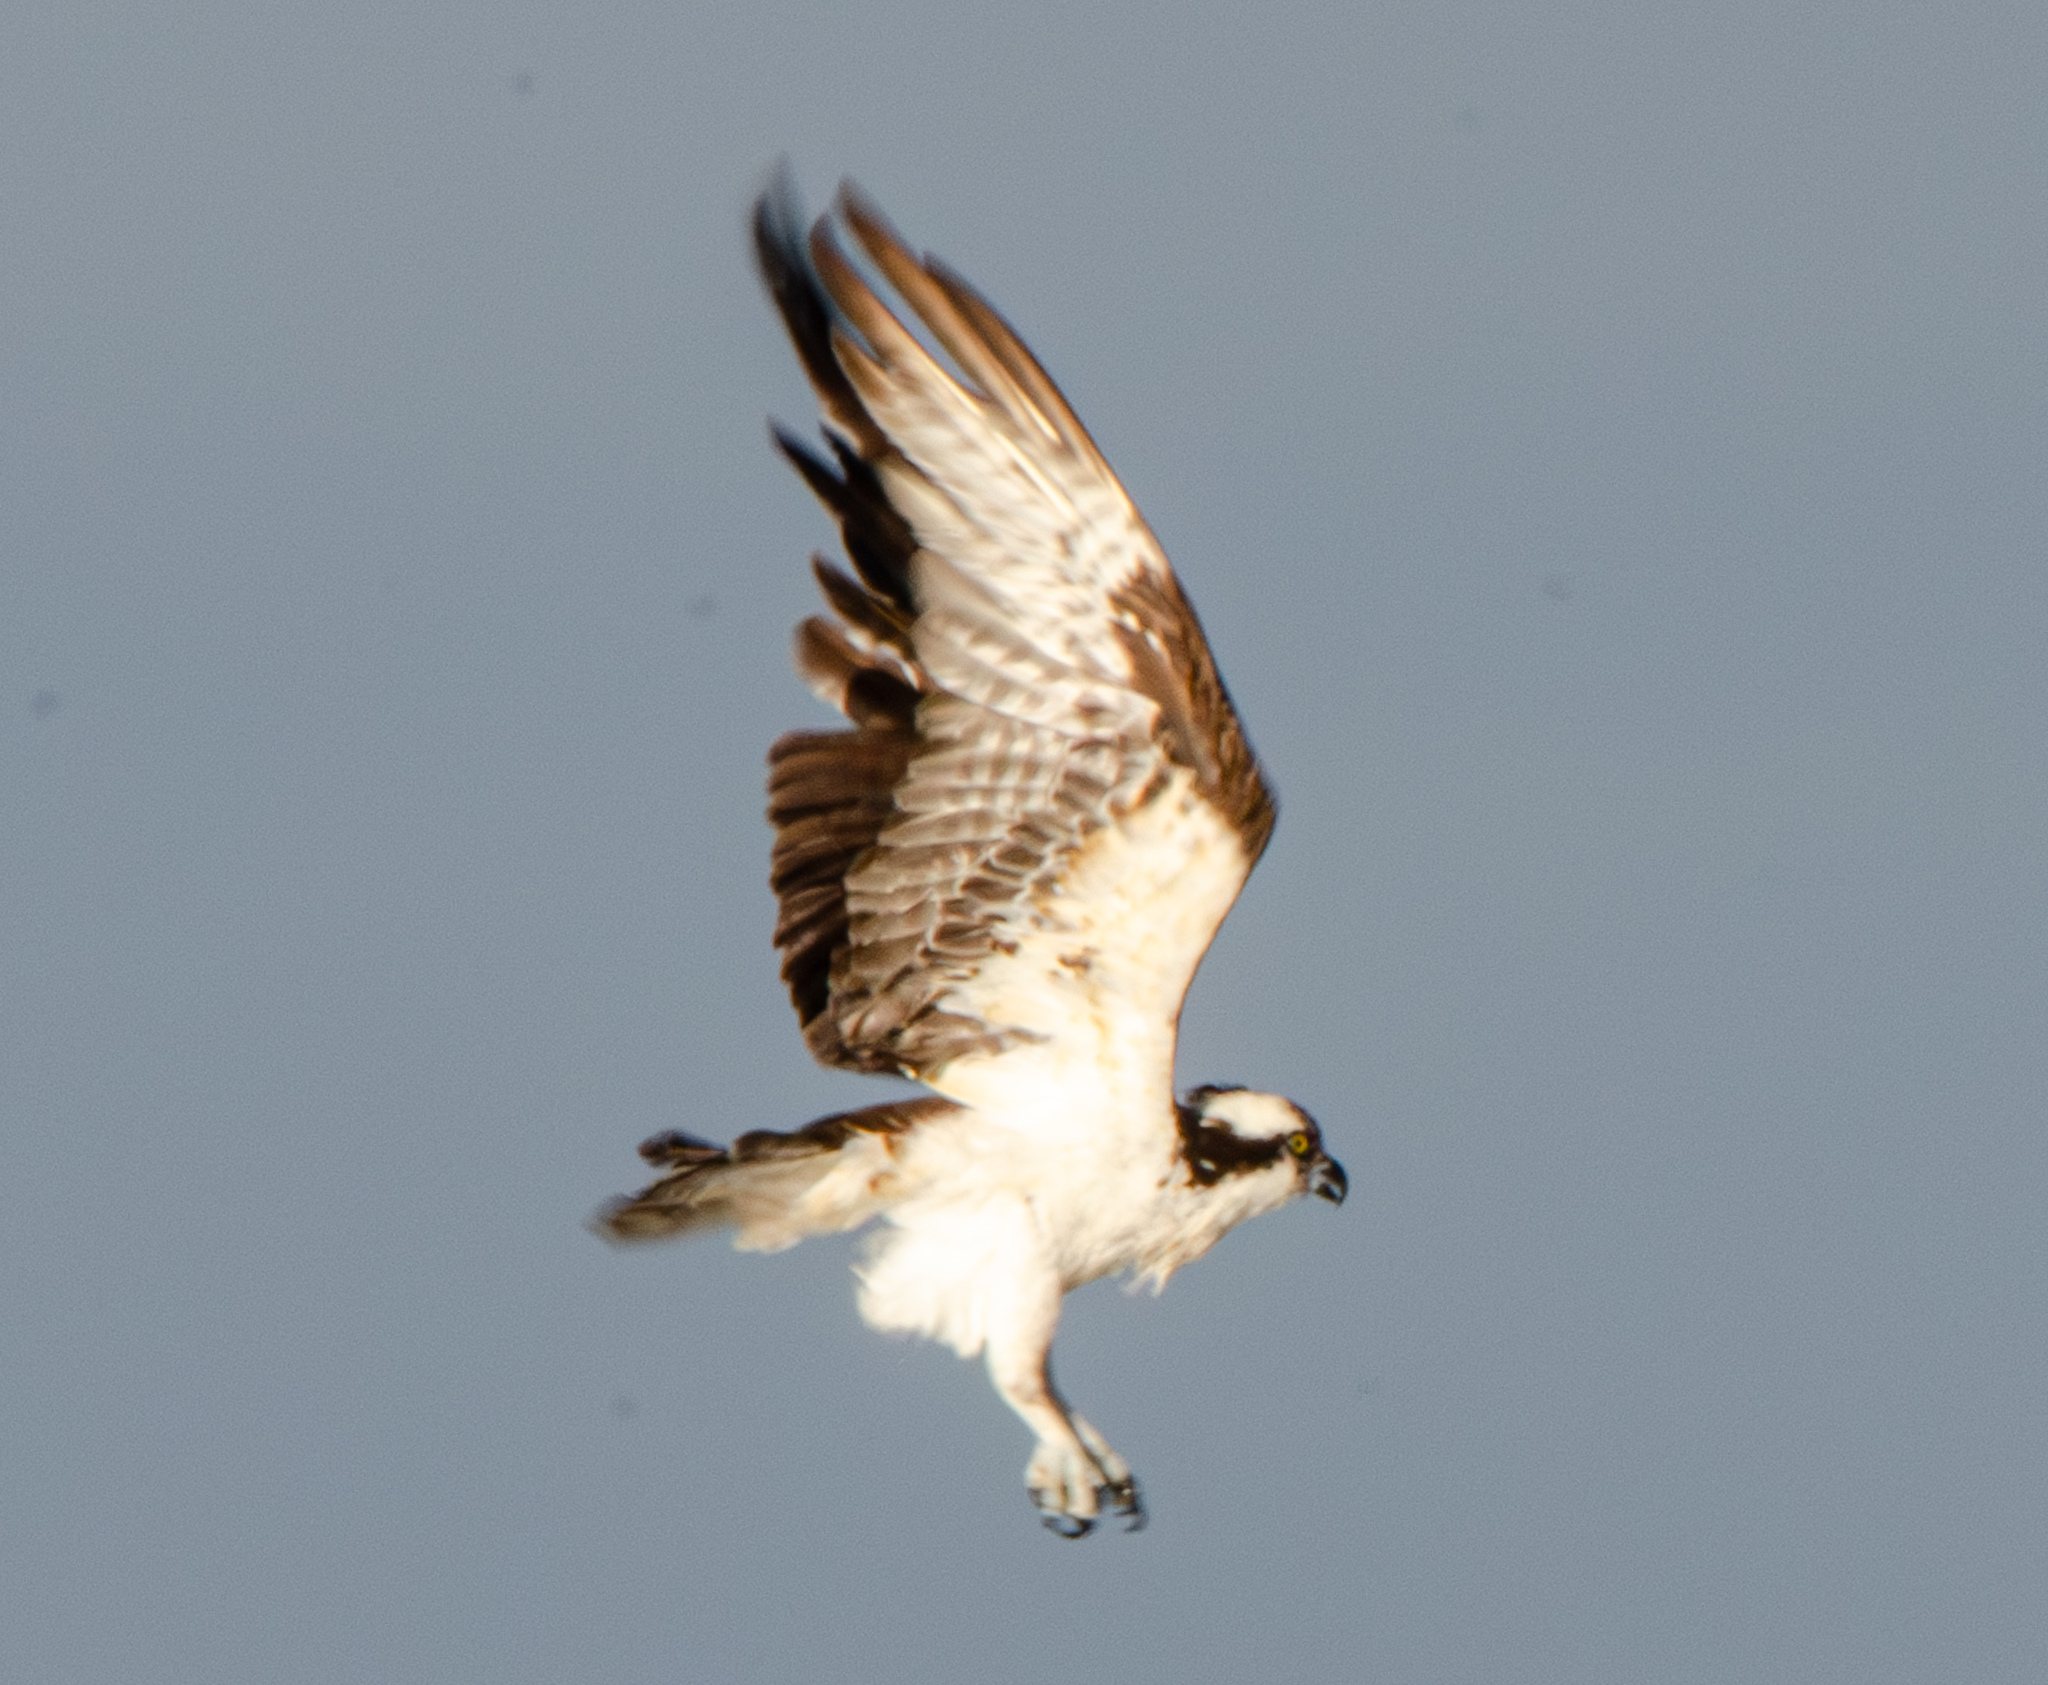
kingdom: Animalia
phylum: Chordata
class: Aves
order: Accipitriformes
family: Pandionidae
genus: Pandion
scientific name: Pandion haliaetus
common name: Osprey
